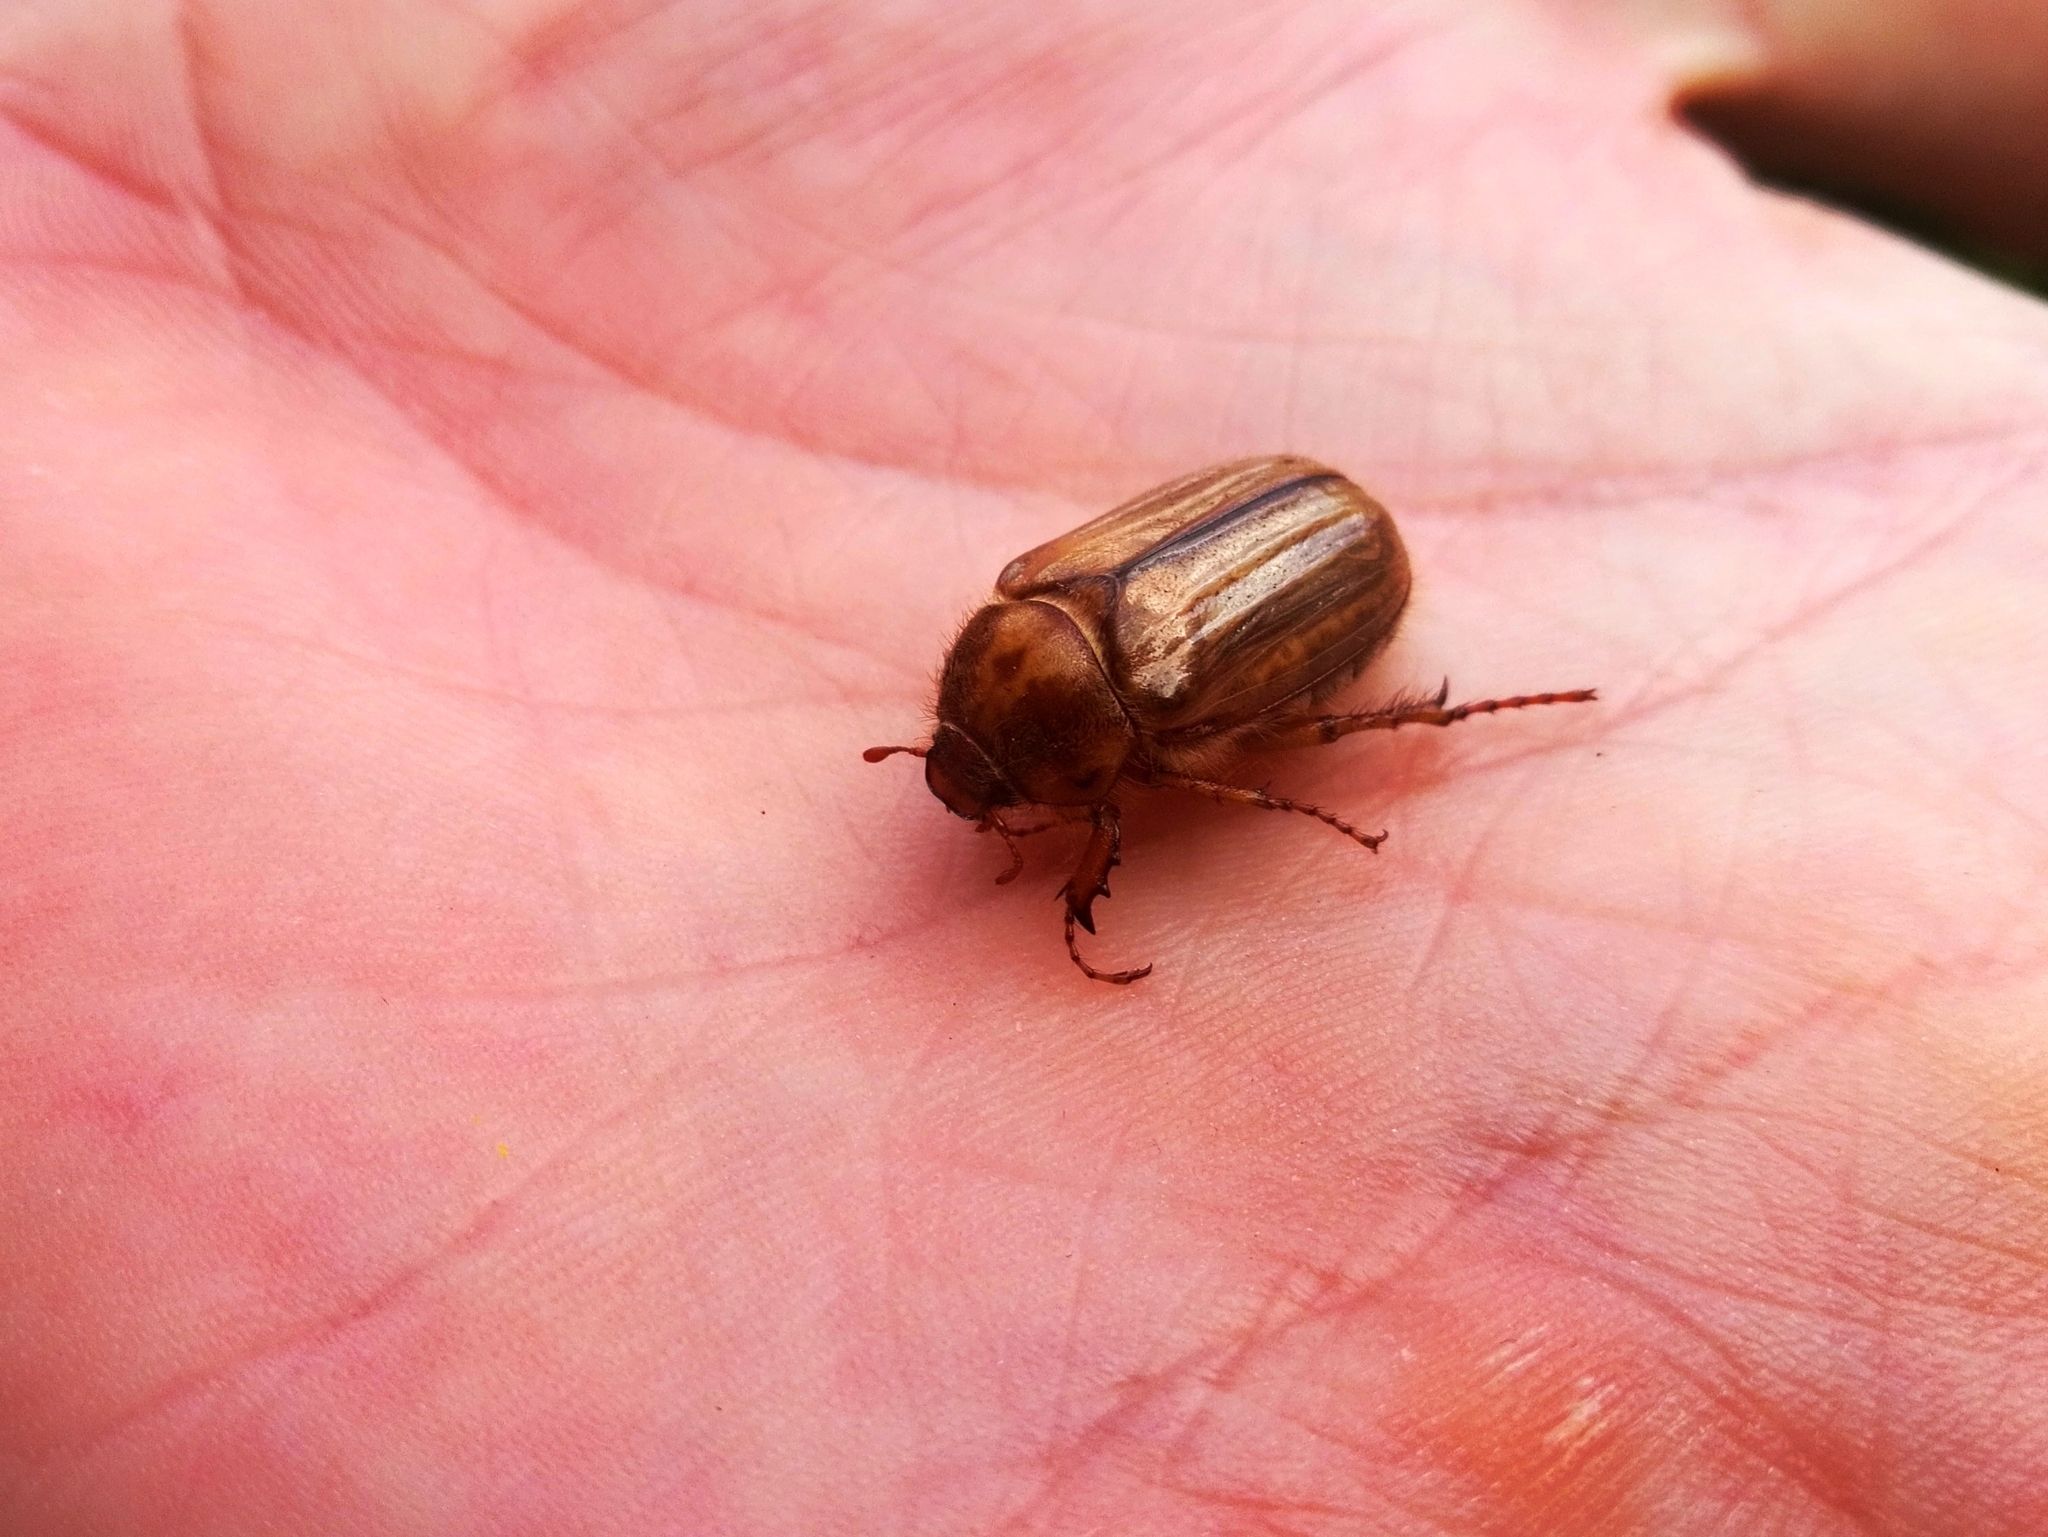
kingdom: Animalia
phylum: Arthropoda
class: Insecta
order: Coleoptera
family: Scarabaeidae
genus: Amphimallon
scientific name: Amphimallon solstitiale
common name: Summer chafer
